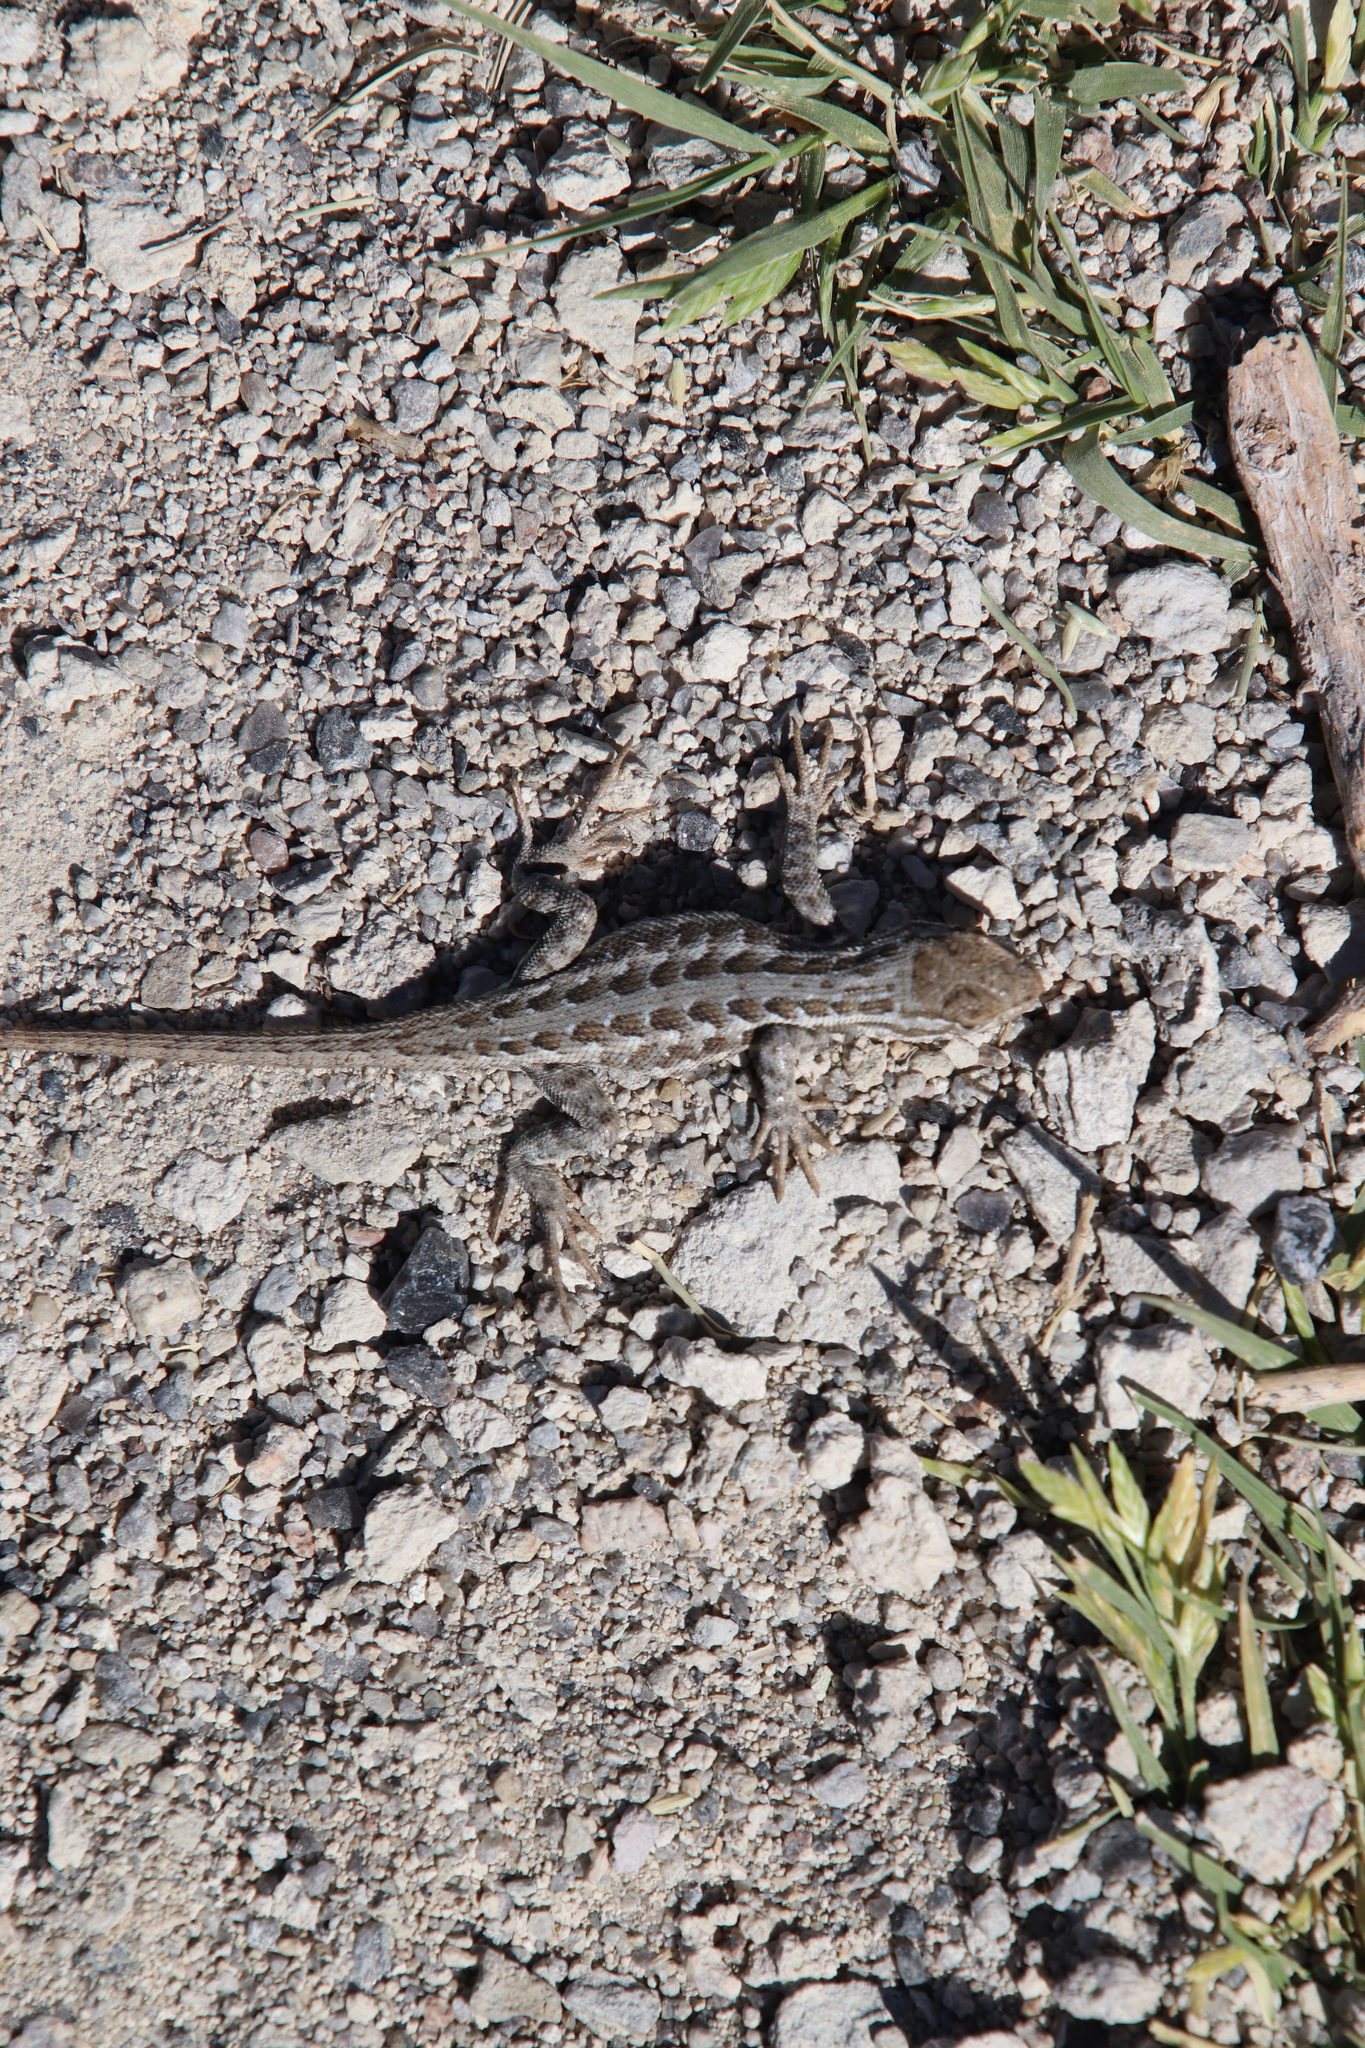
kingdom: Animalia
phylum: Chordata
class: Squamata
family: Phrynosomatidae
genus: Sceloporus
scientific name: Sceloporus graciosus
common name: Sagebrush lizard
